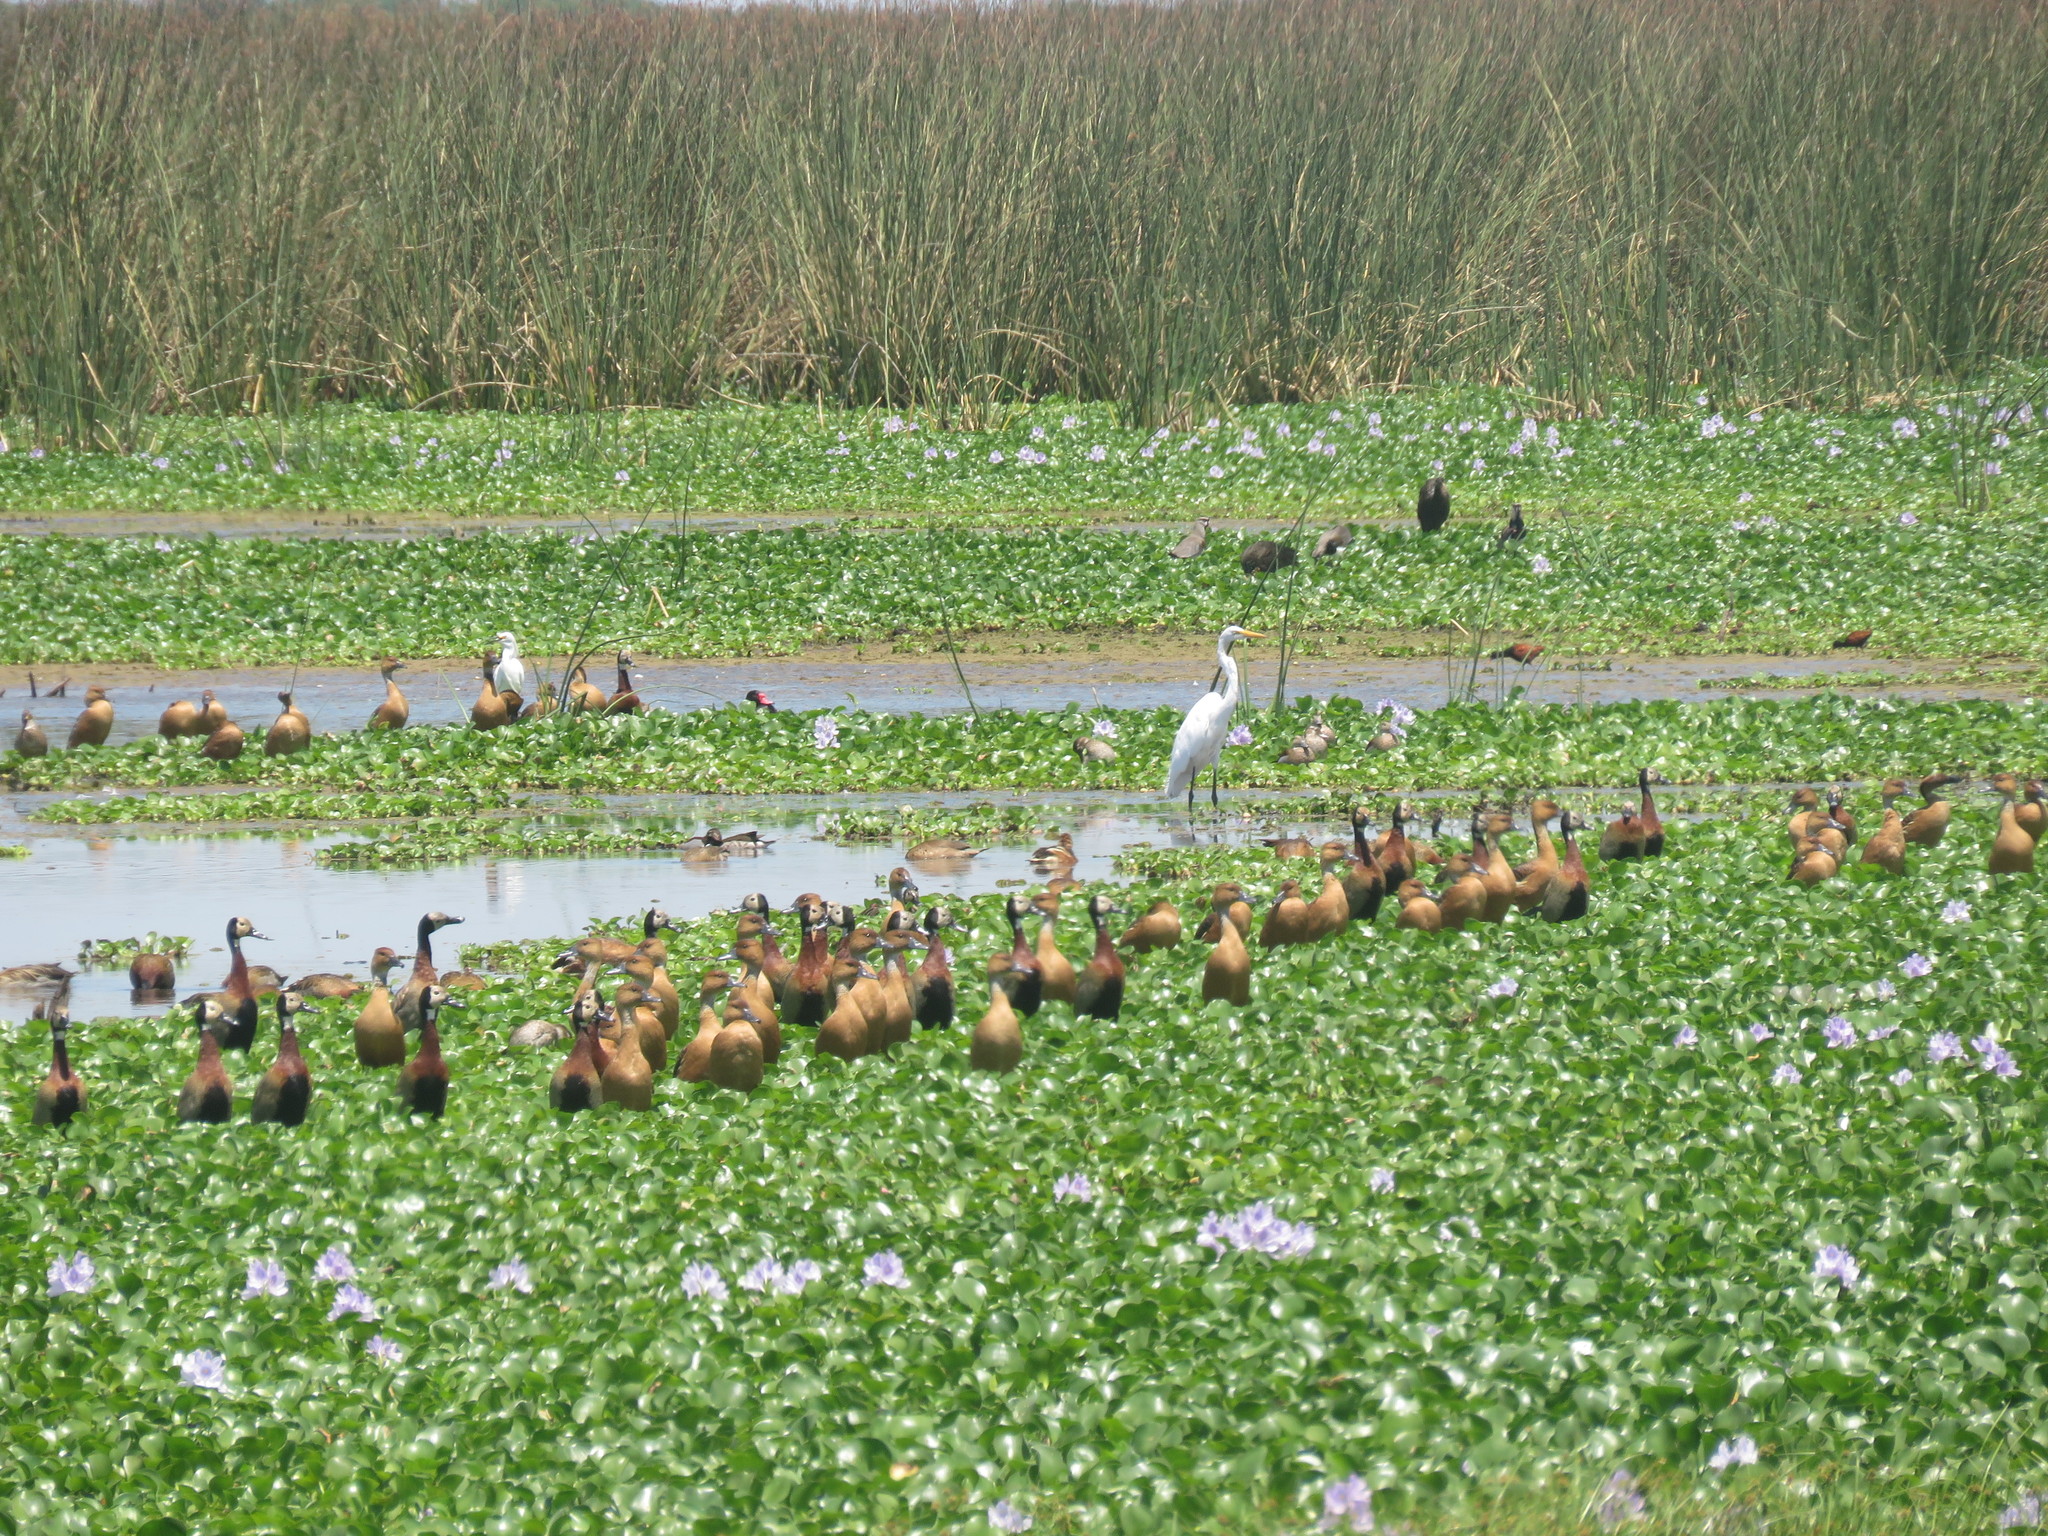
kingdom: Animalia
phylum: Chordata
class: Aves
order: Pelecaniformes
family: Ardeidae
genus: Ardea
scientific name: Ardea alba
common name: Great egret
